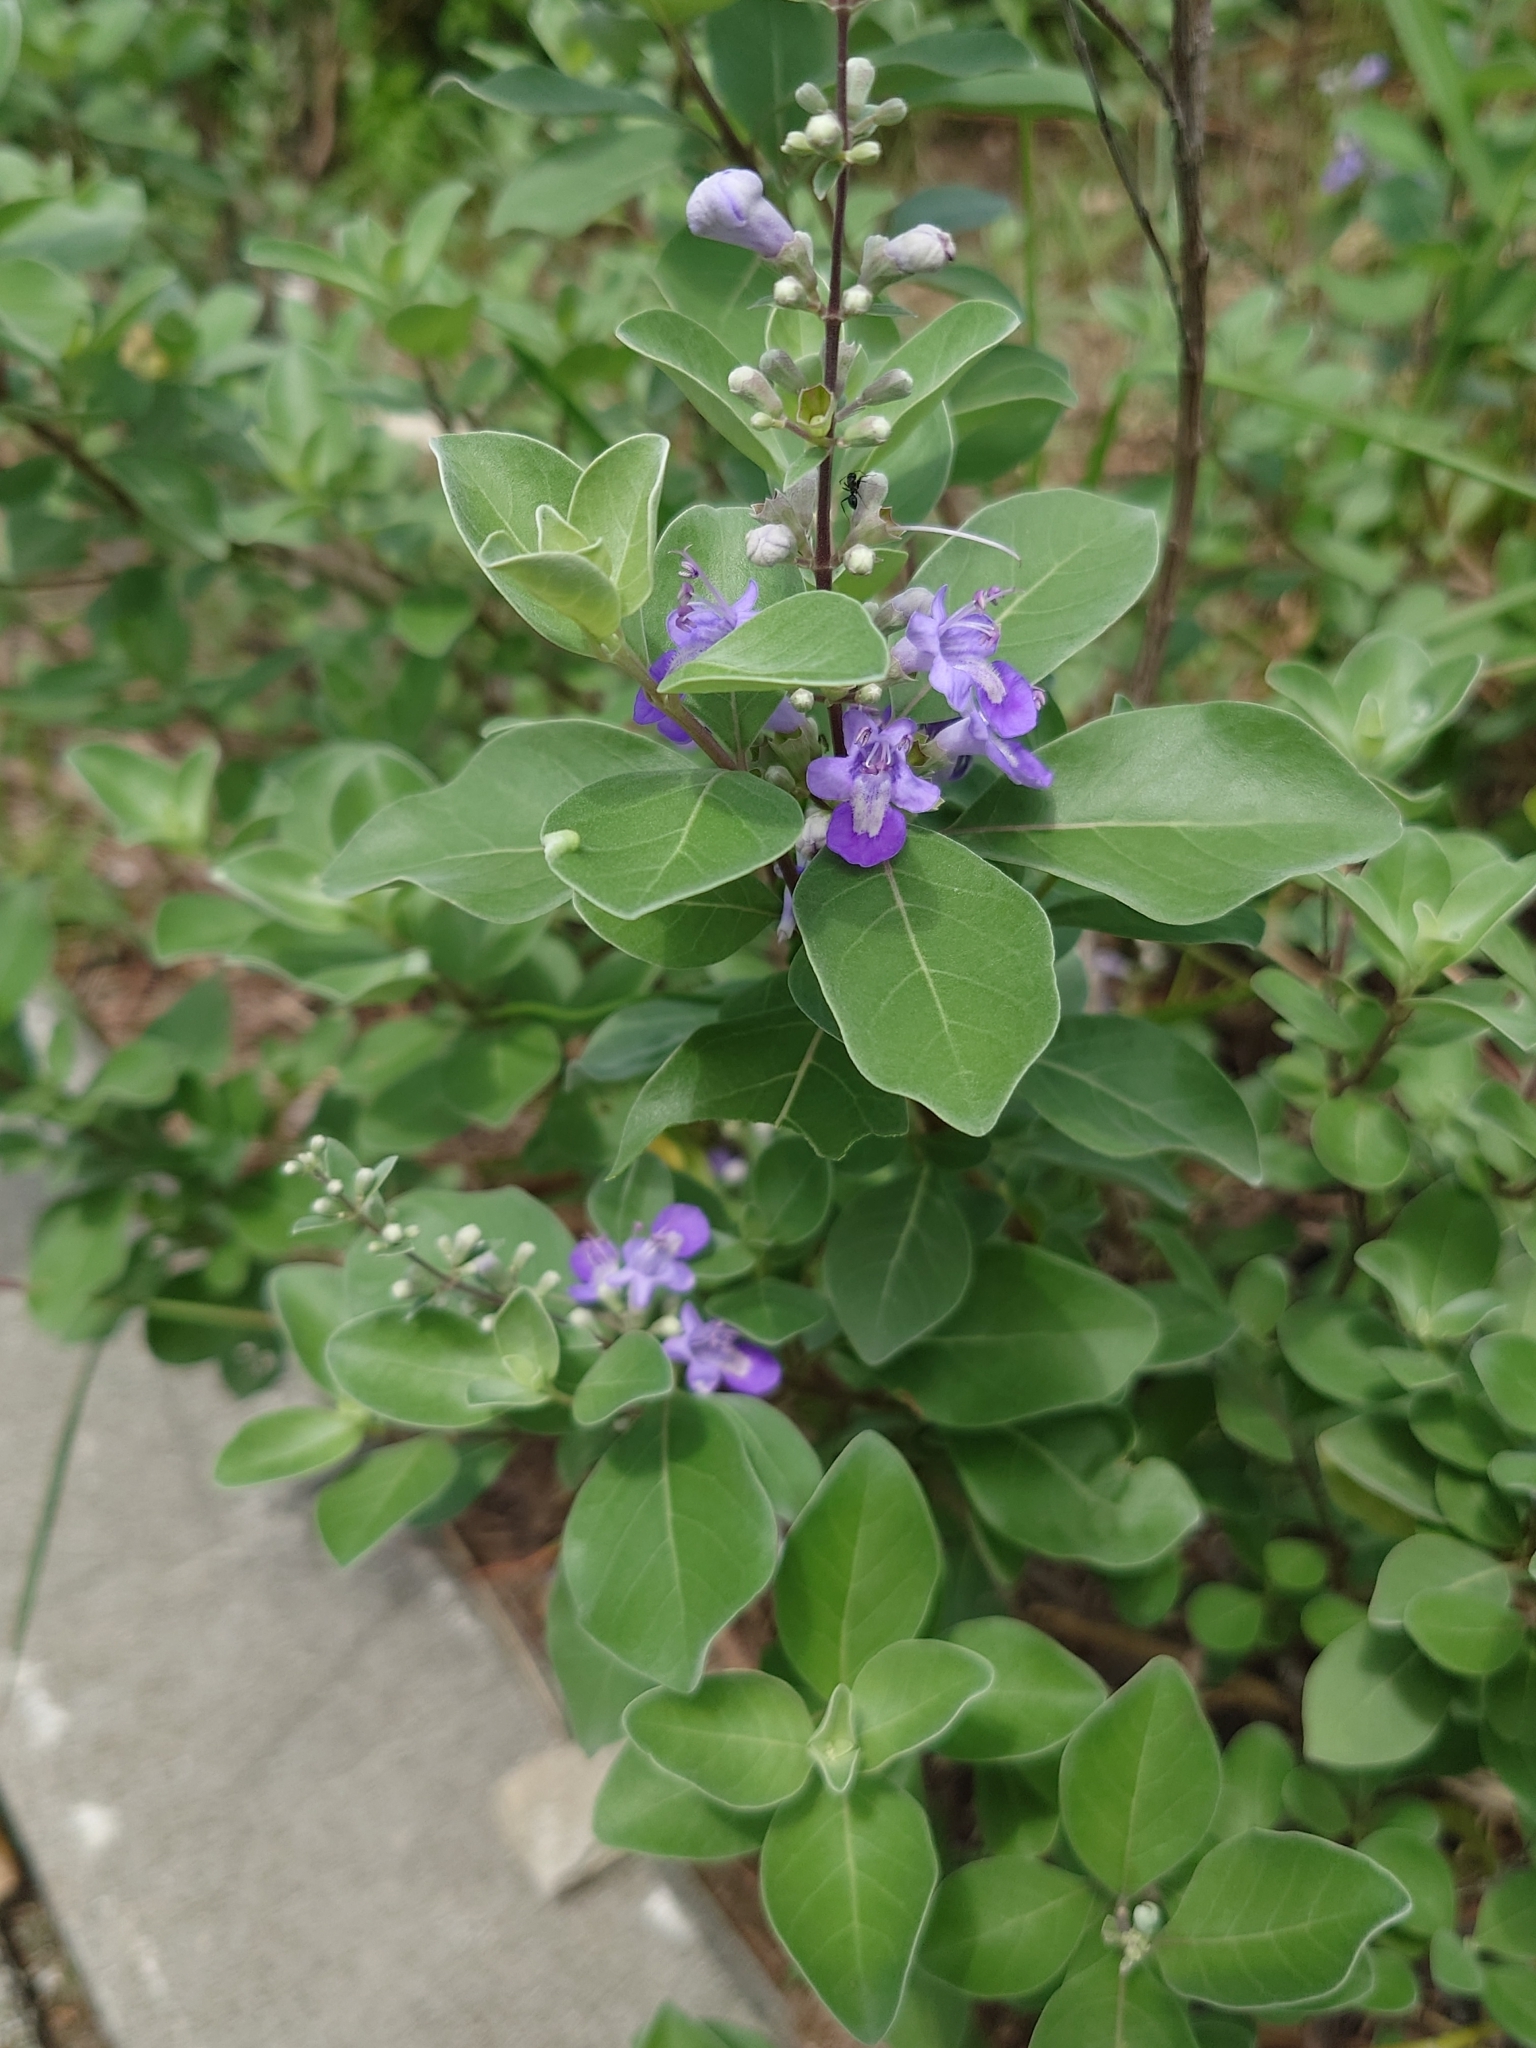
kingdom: Plantae
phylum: Tracheophyta
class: Magnoliopsida
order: Lamiales
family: Lamiaceae
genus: Vitex
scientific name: Vitex rotundifolia
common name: Beach vitex
